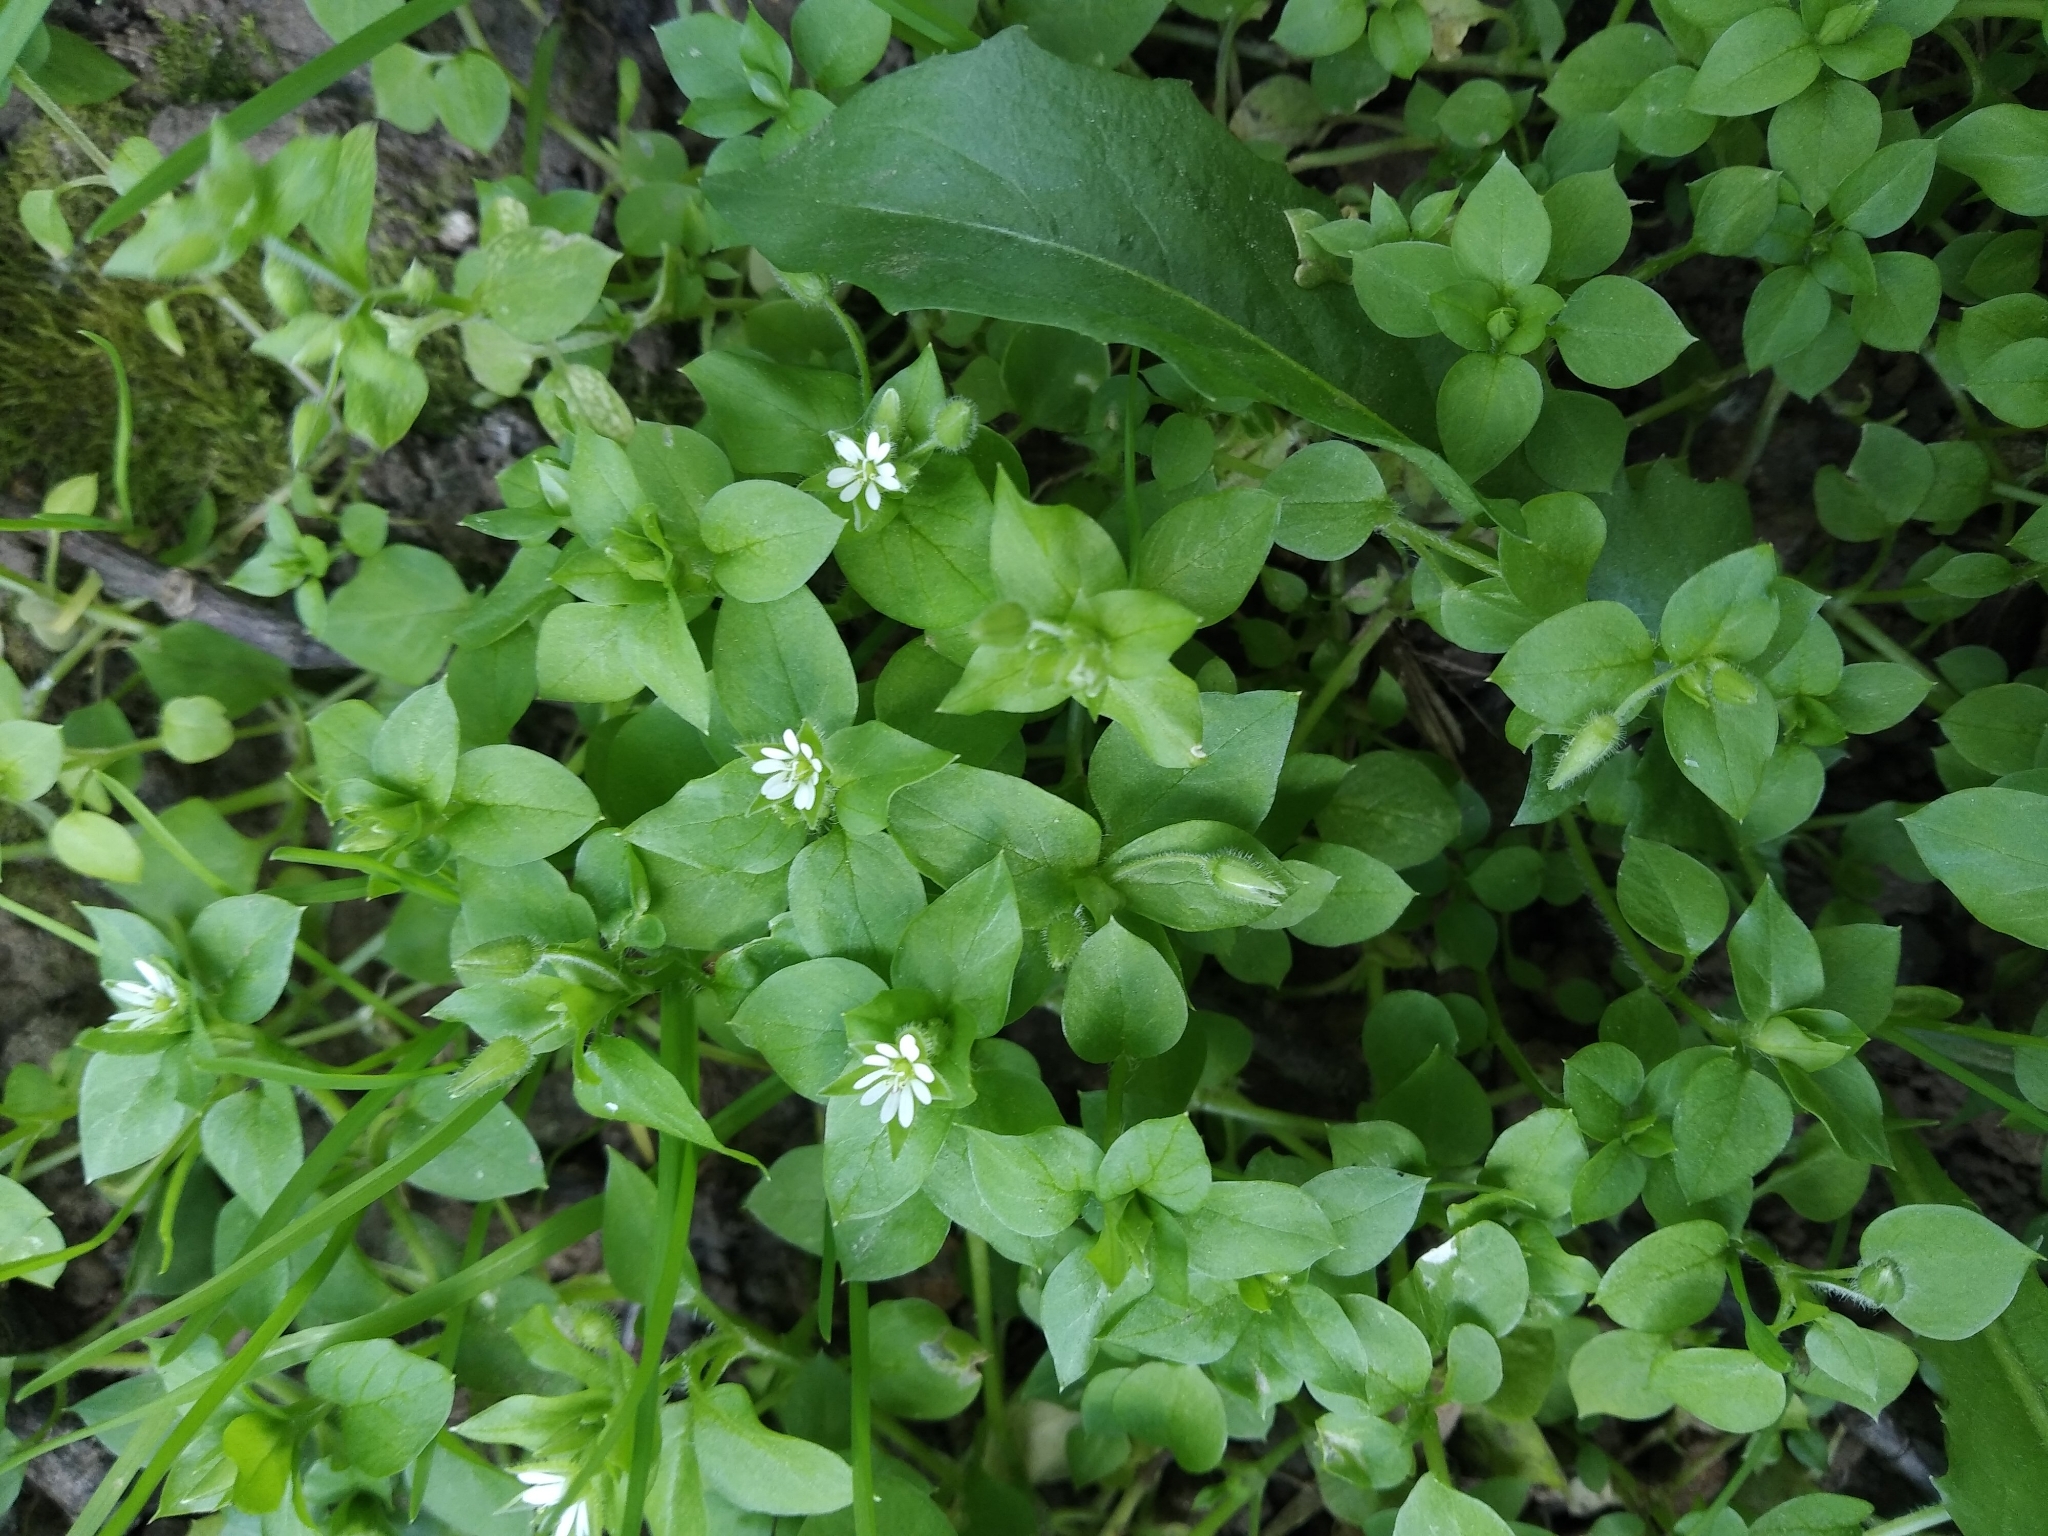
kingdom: Plantae
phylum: Tracheophyta
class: Magnoliopsida
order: Caryophyllales
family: Caryophyllaceae
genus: Stellaria
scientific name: Stellaria media
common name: Common chickweed
